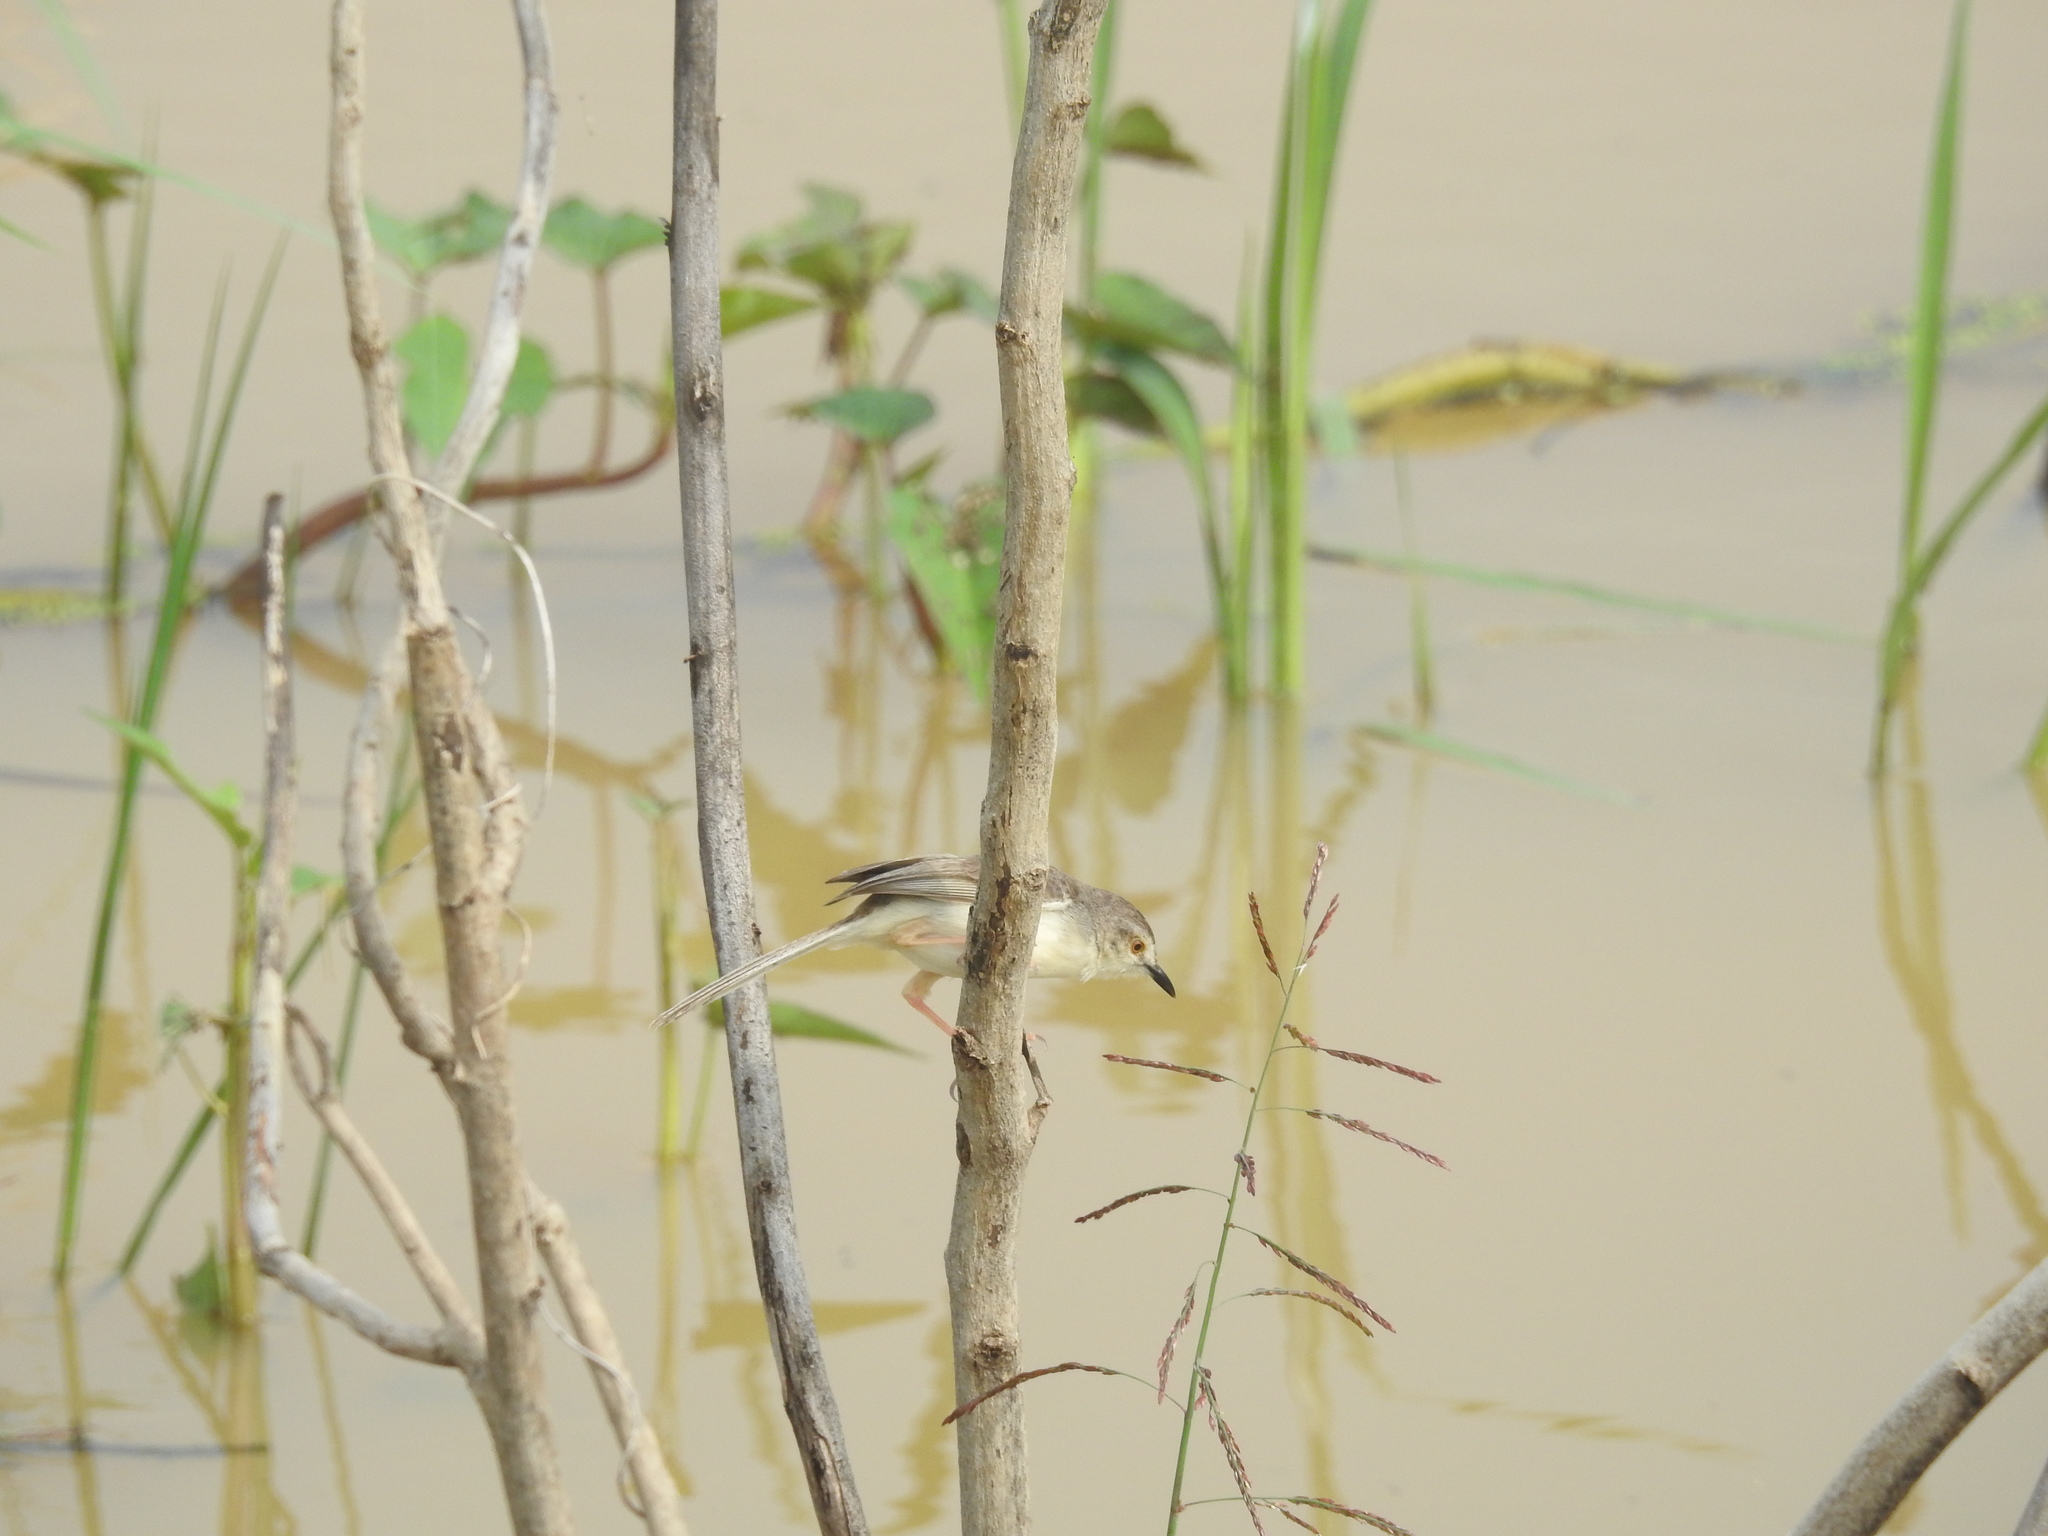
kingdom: Animalia
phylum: Chordata
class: Aves
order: Passeriformes
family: Cisticolidae
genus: Prinia
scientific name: Prinia inornata
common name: Plain prinia
